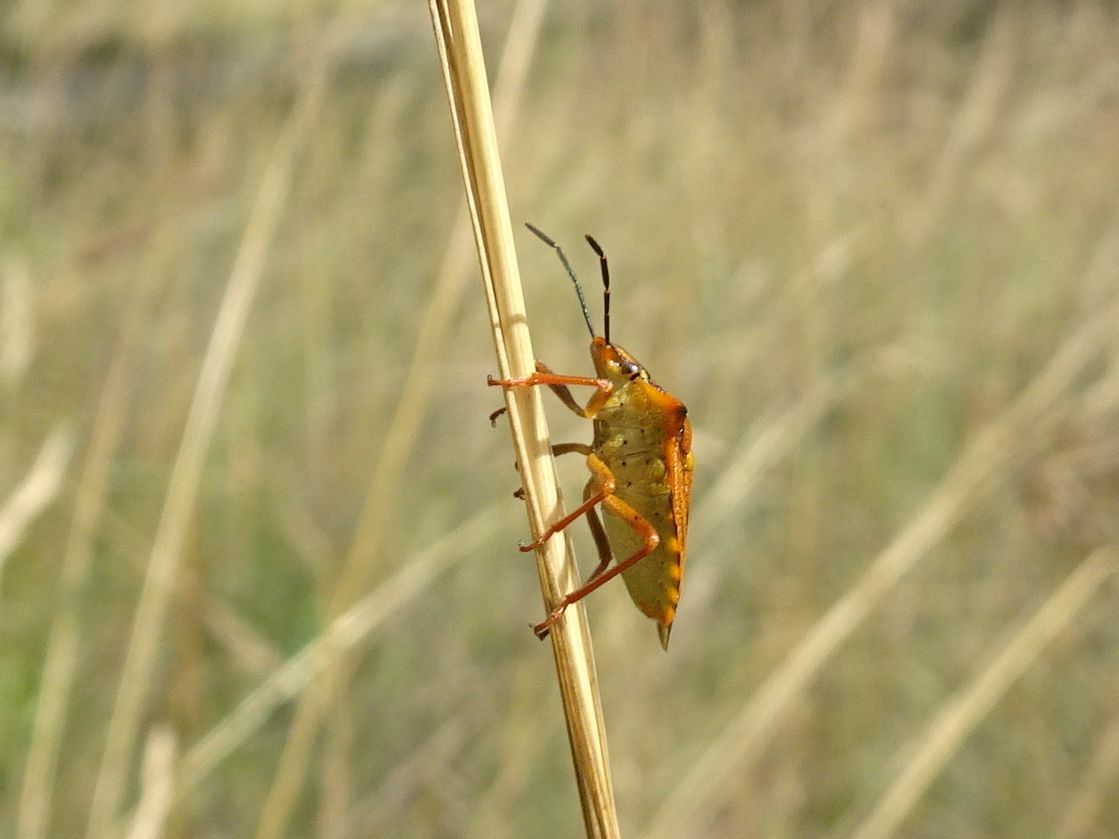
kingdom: Animalia
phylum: Arthropoda
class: Insecta
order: Hemiptera
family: Pentatomidae
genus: Carpocoris
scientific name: Carpocoris mediterraneus
